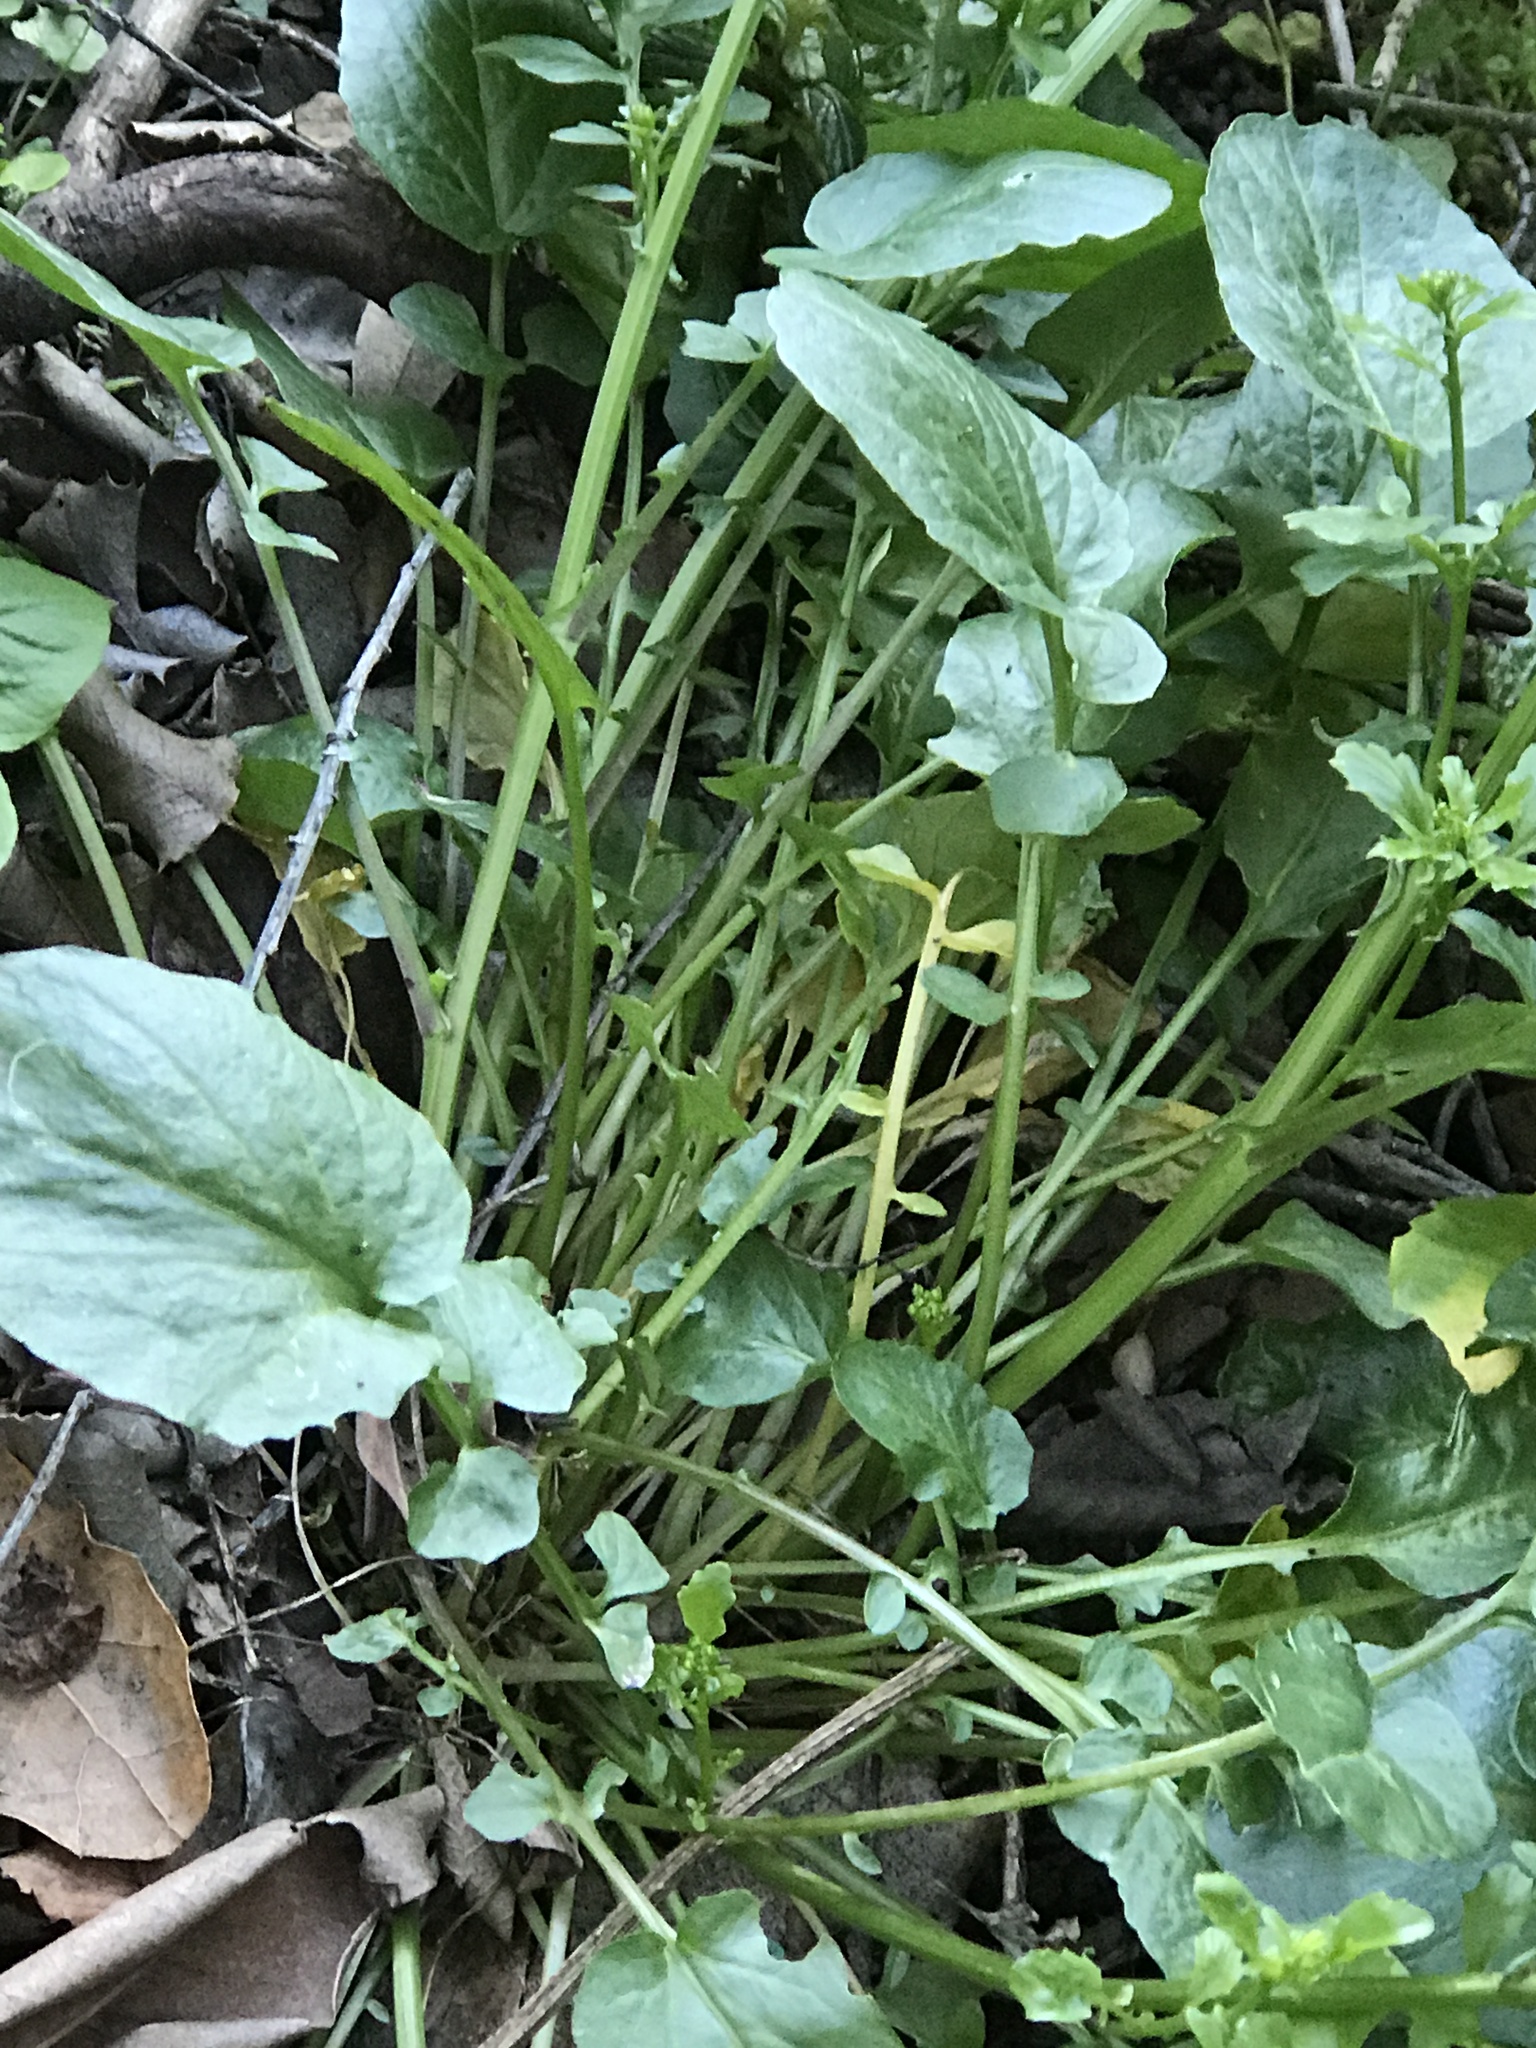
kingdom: Plantae
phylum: Tracheophyta
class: Magnoliopsida
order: Brassicales
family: Brassicaceae
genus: Barbarea
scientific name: Barbarea orthoceras
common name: American wintercress
